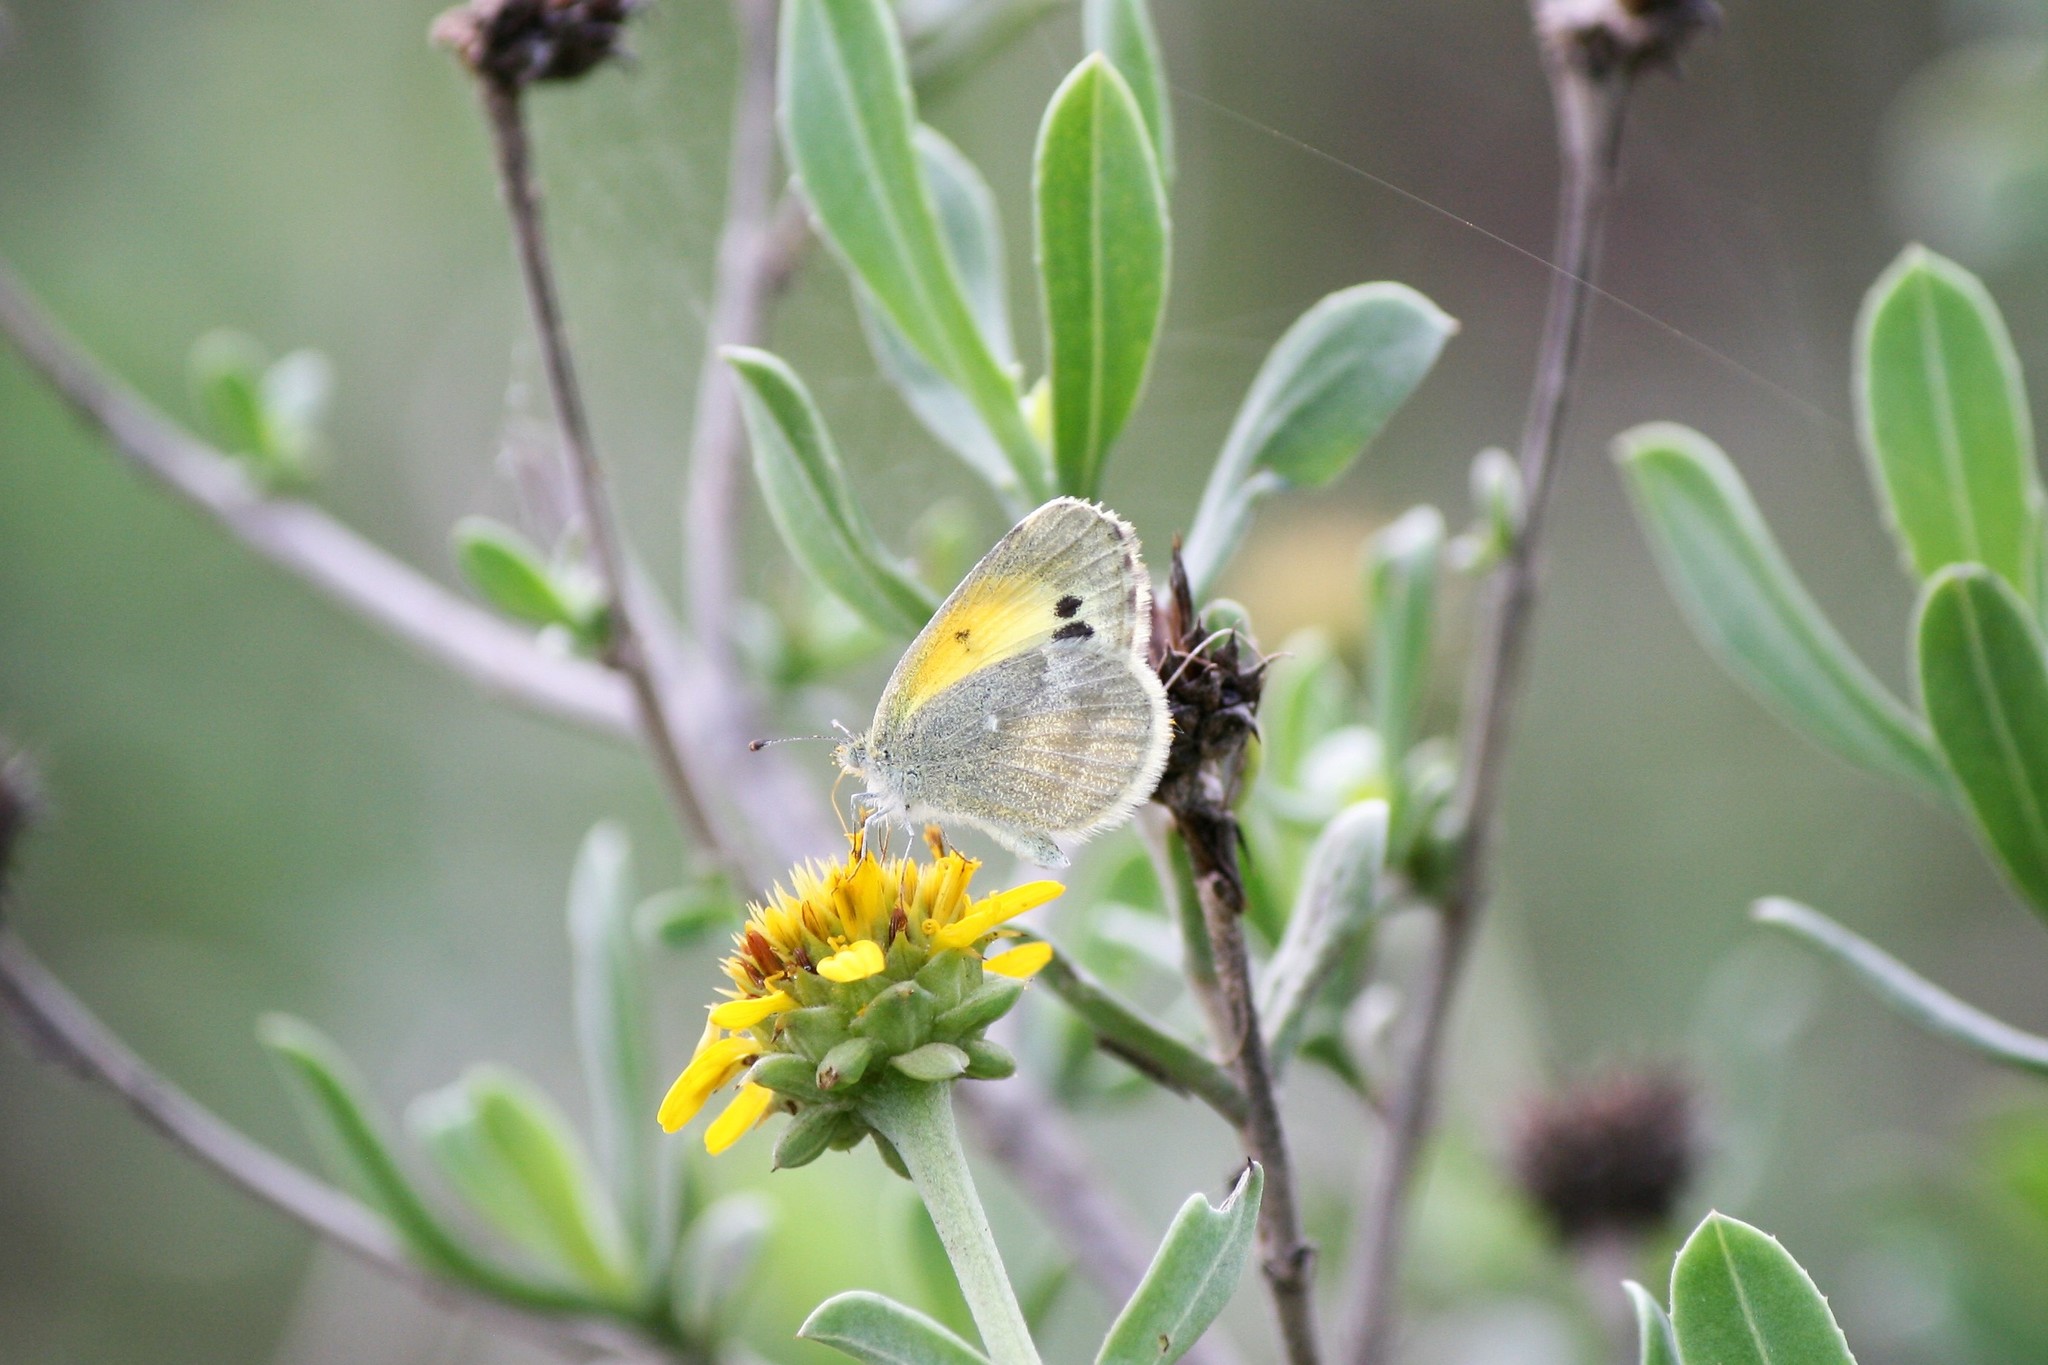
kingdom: Animalia
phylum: Arthropoda
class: Insecta
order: Lepidoptera
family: Pieridae
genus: Nathalis
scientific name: Nathalis iole
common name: Dainty sulphur
